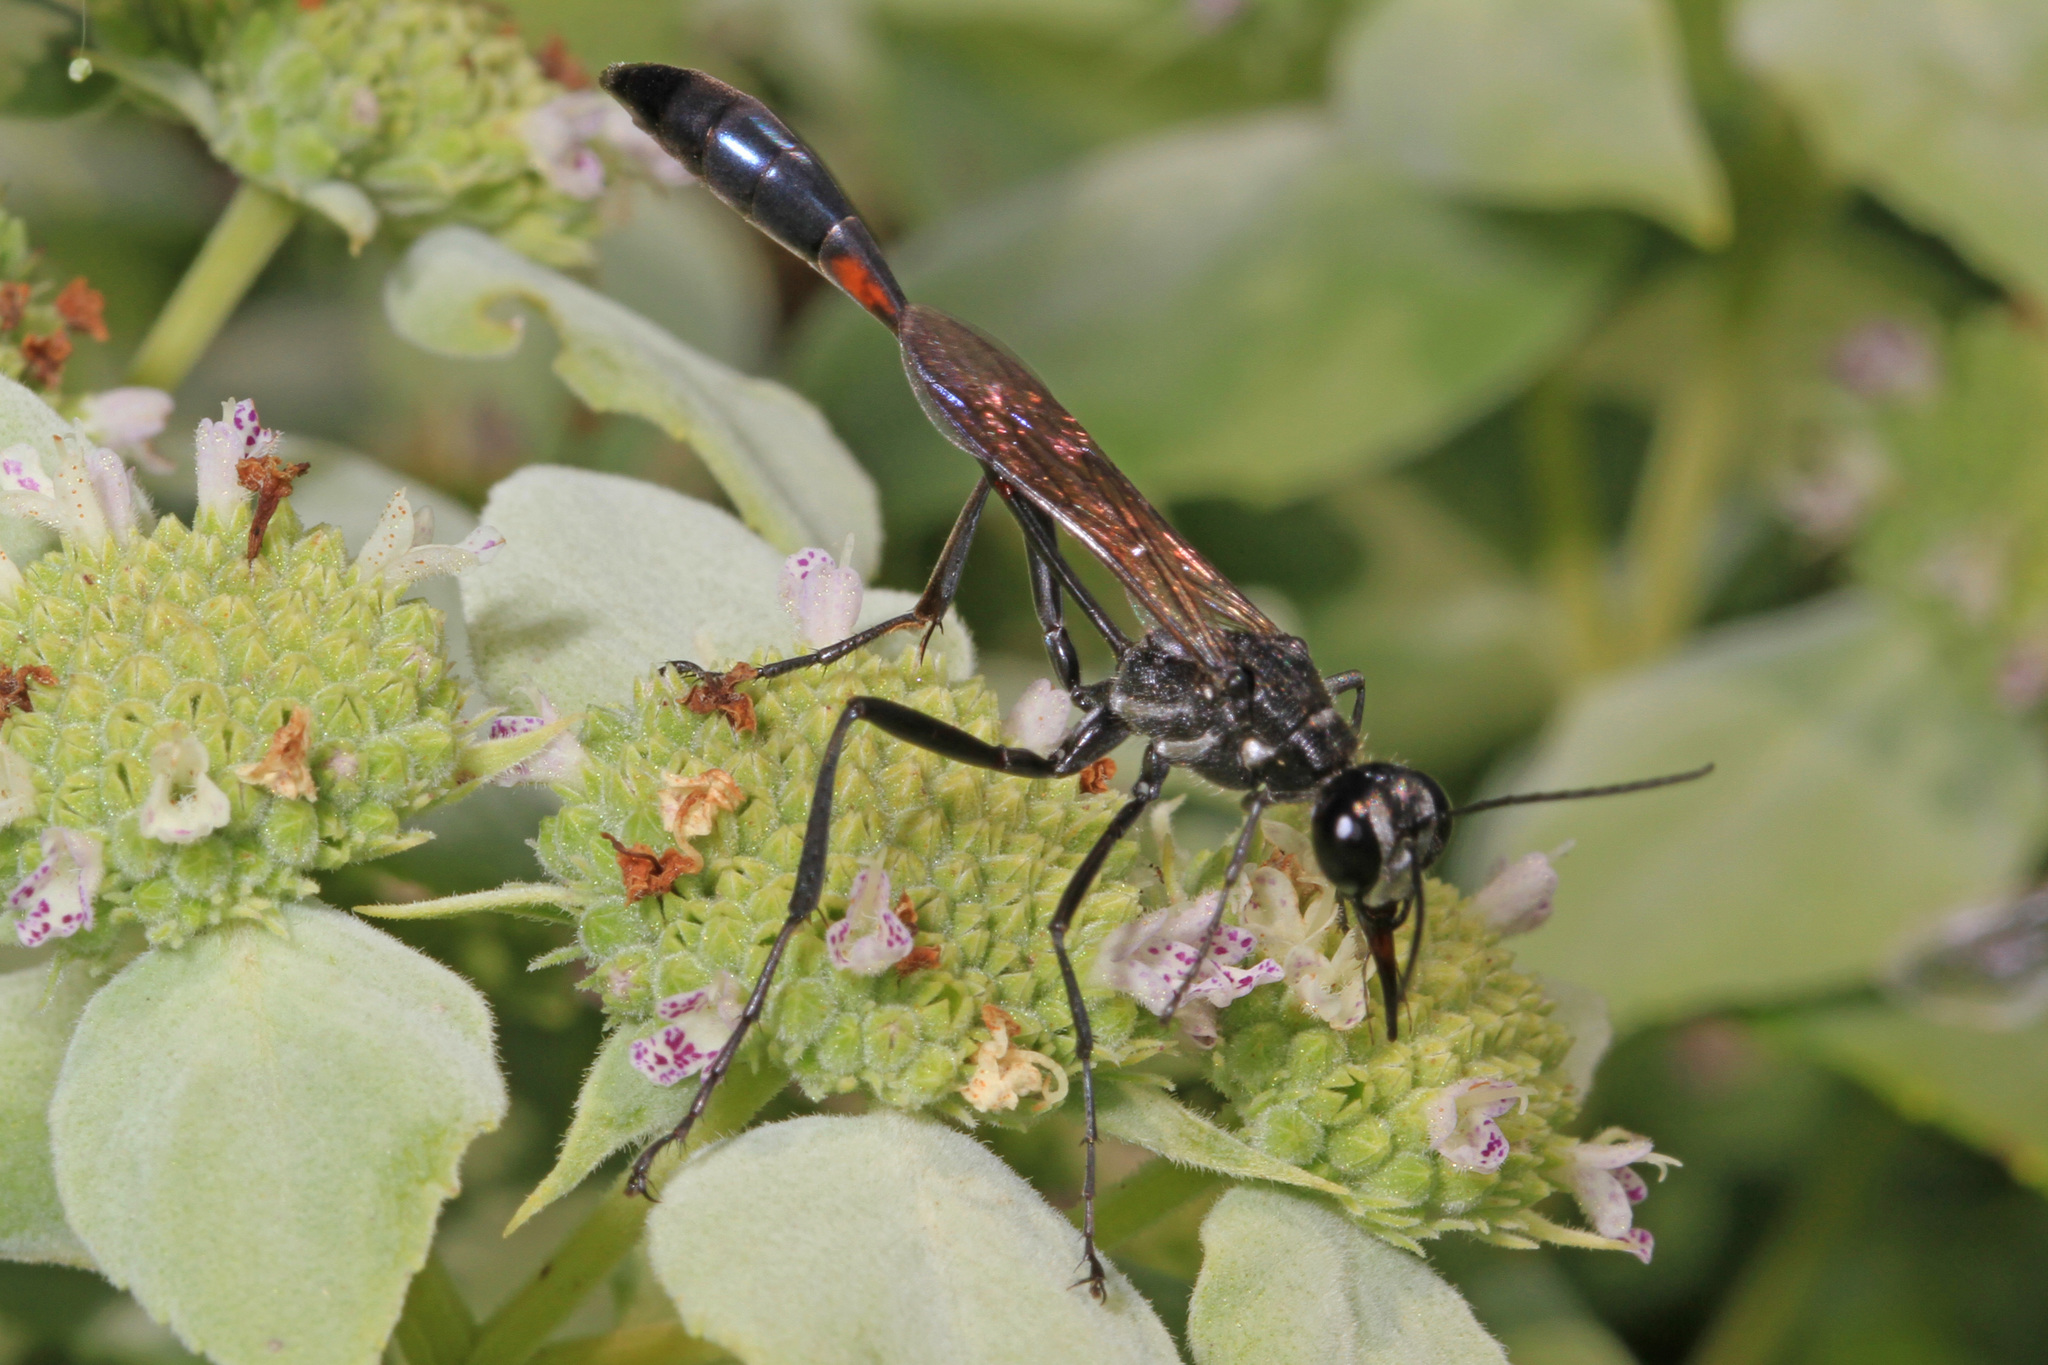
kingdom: Animalia
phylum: Arthropoda
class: Insecta
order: Hymenoptera
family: Sphecidae
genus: Ammophila
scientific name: Ammophila procera
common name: Common thread-waisted wasp
